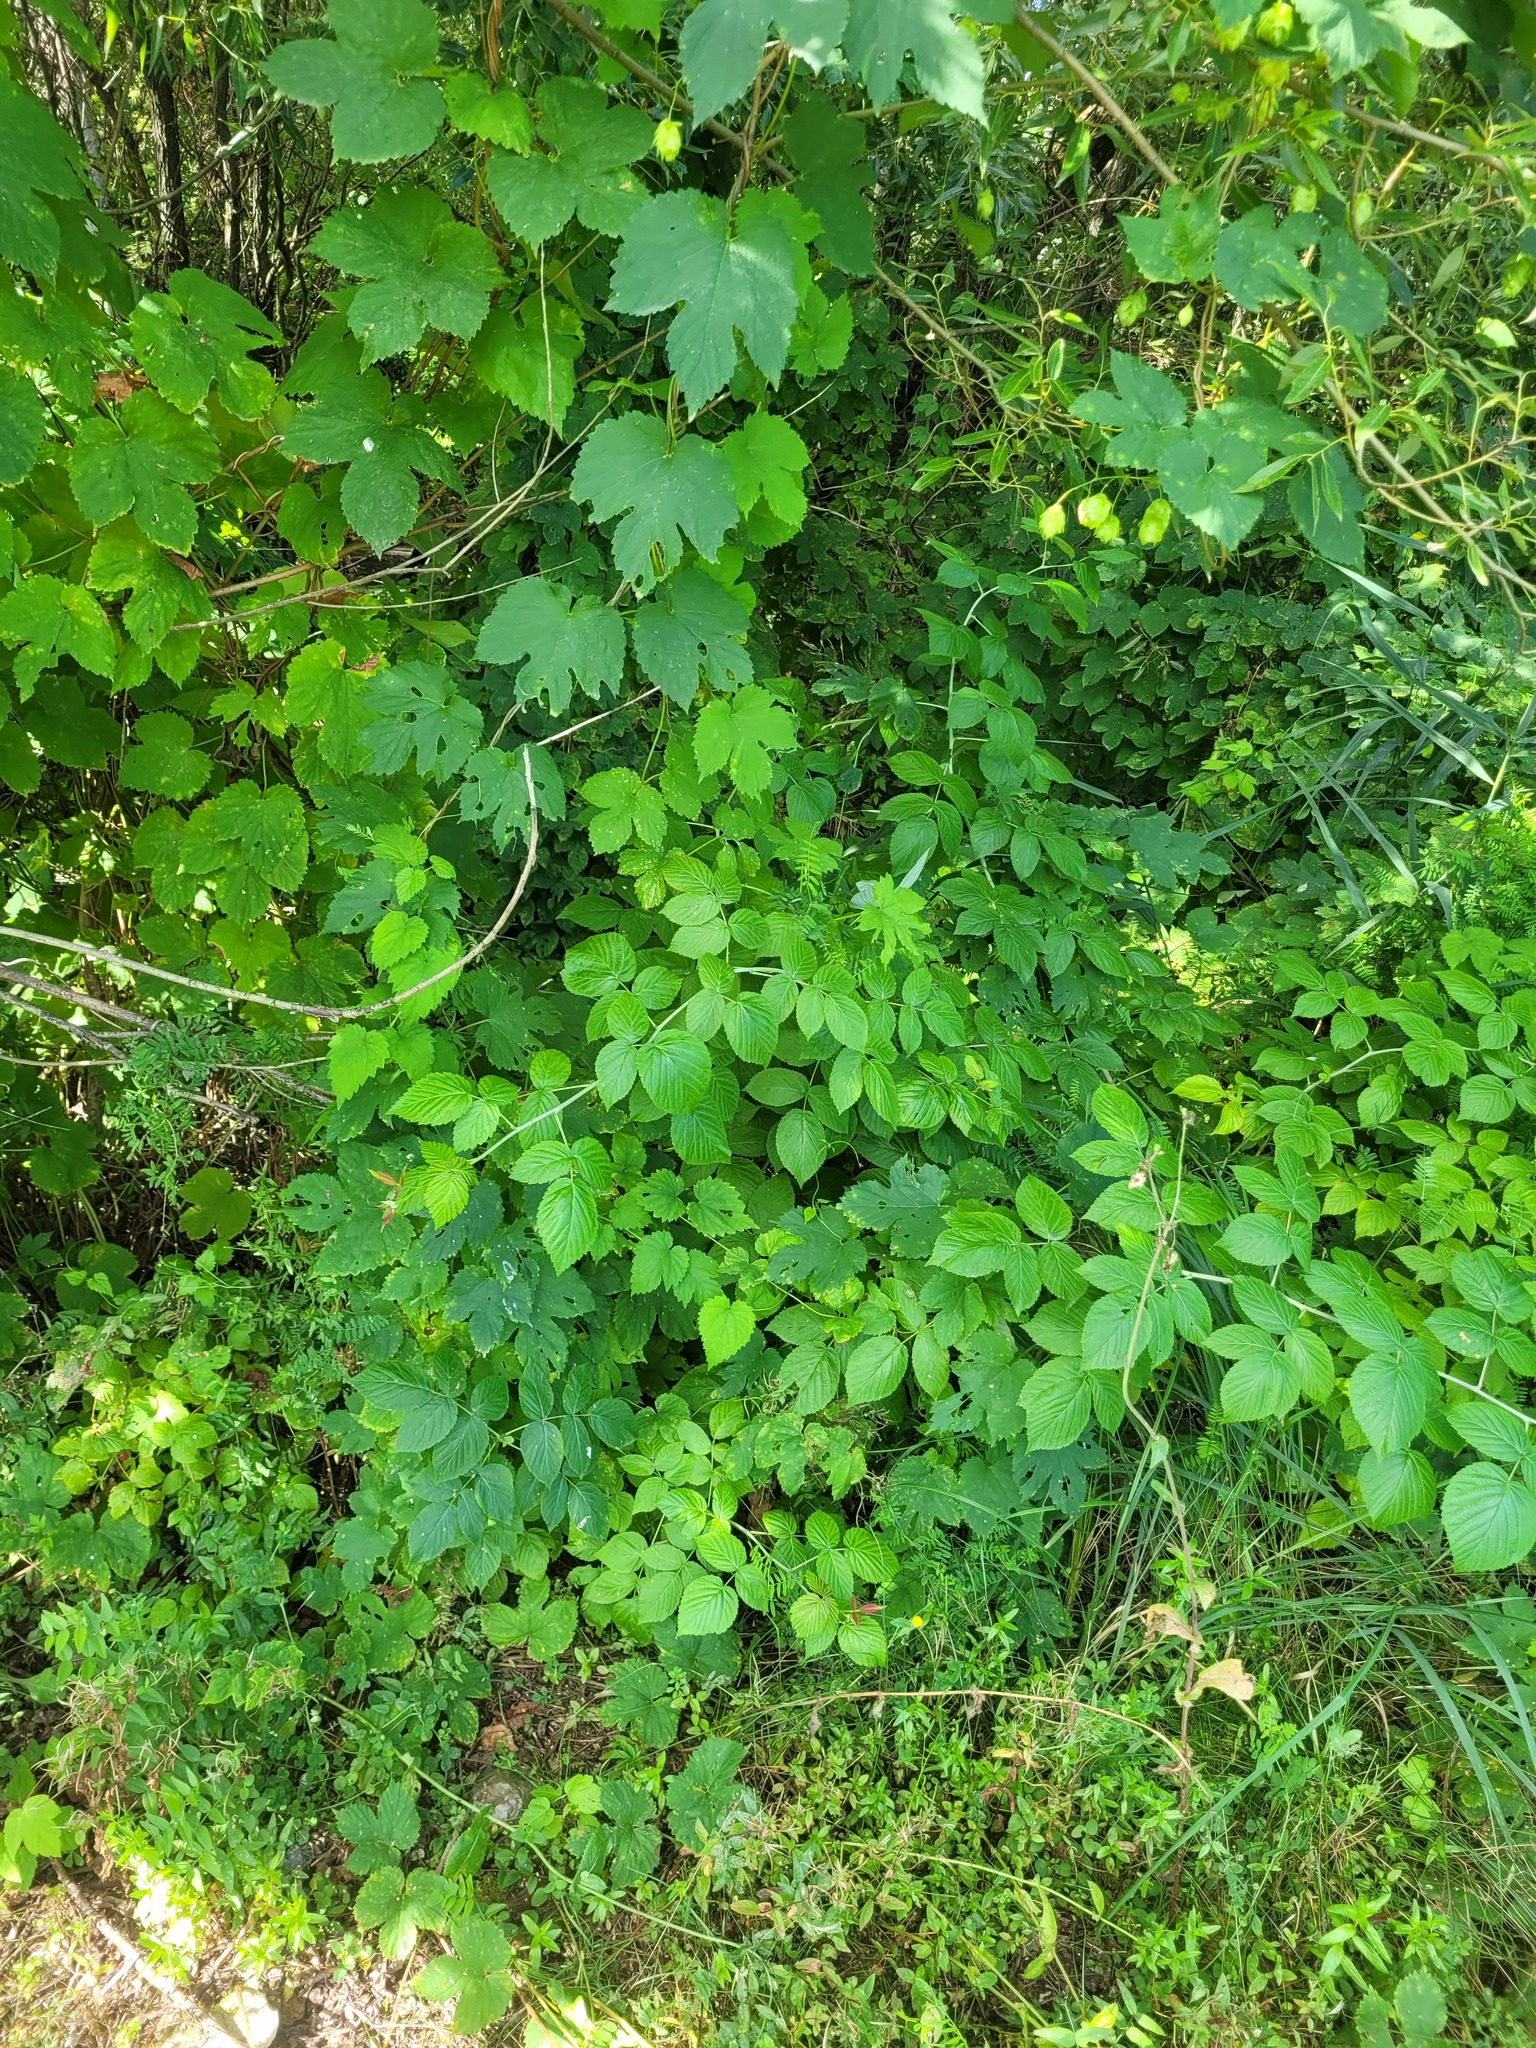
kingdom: Plantae
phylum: Tracheophyta
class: Magnoliopsida
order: Rosales
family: Rosaceae
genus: Rubus
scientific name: Rubus idaeus
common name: Raspberry
